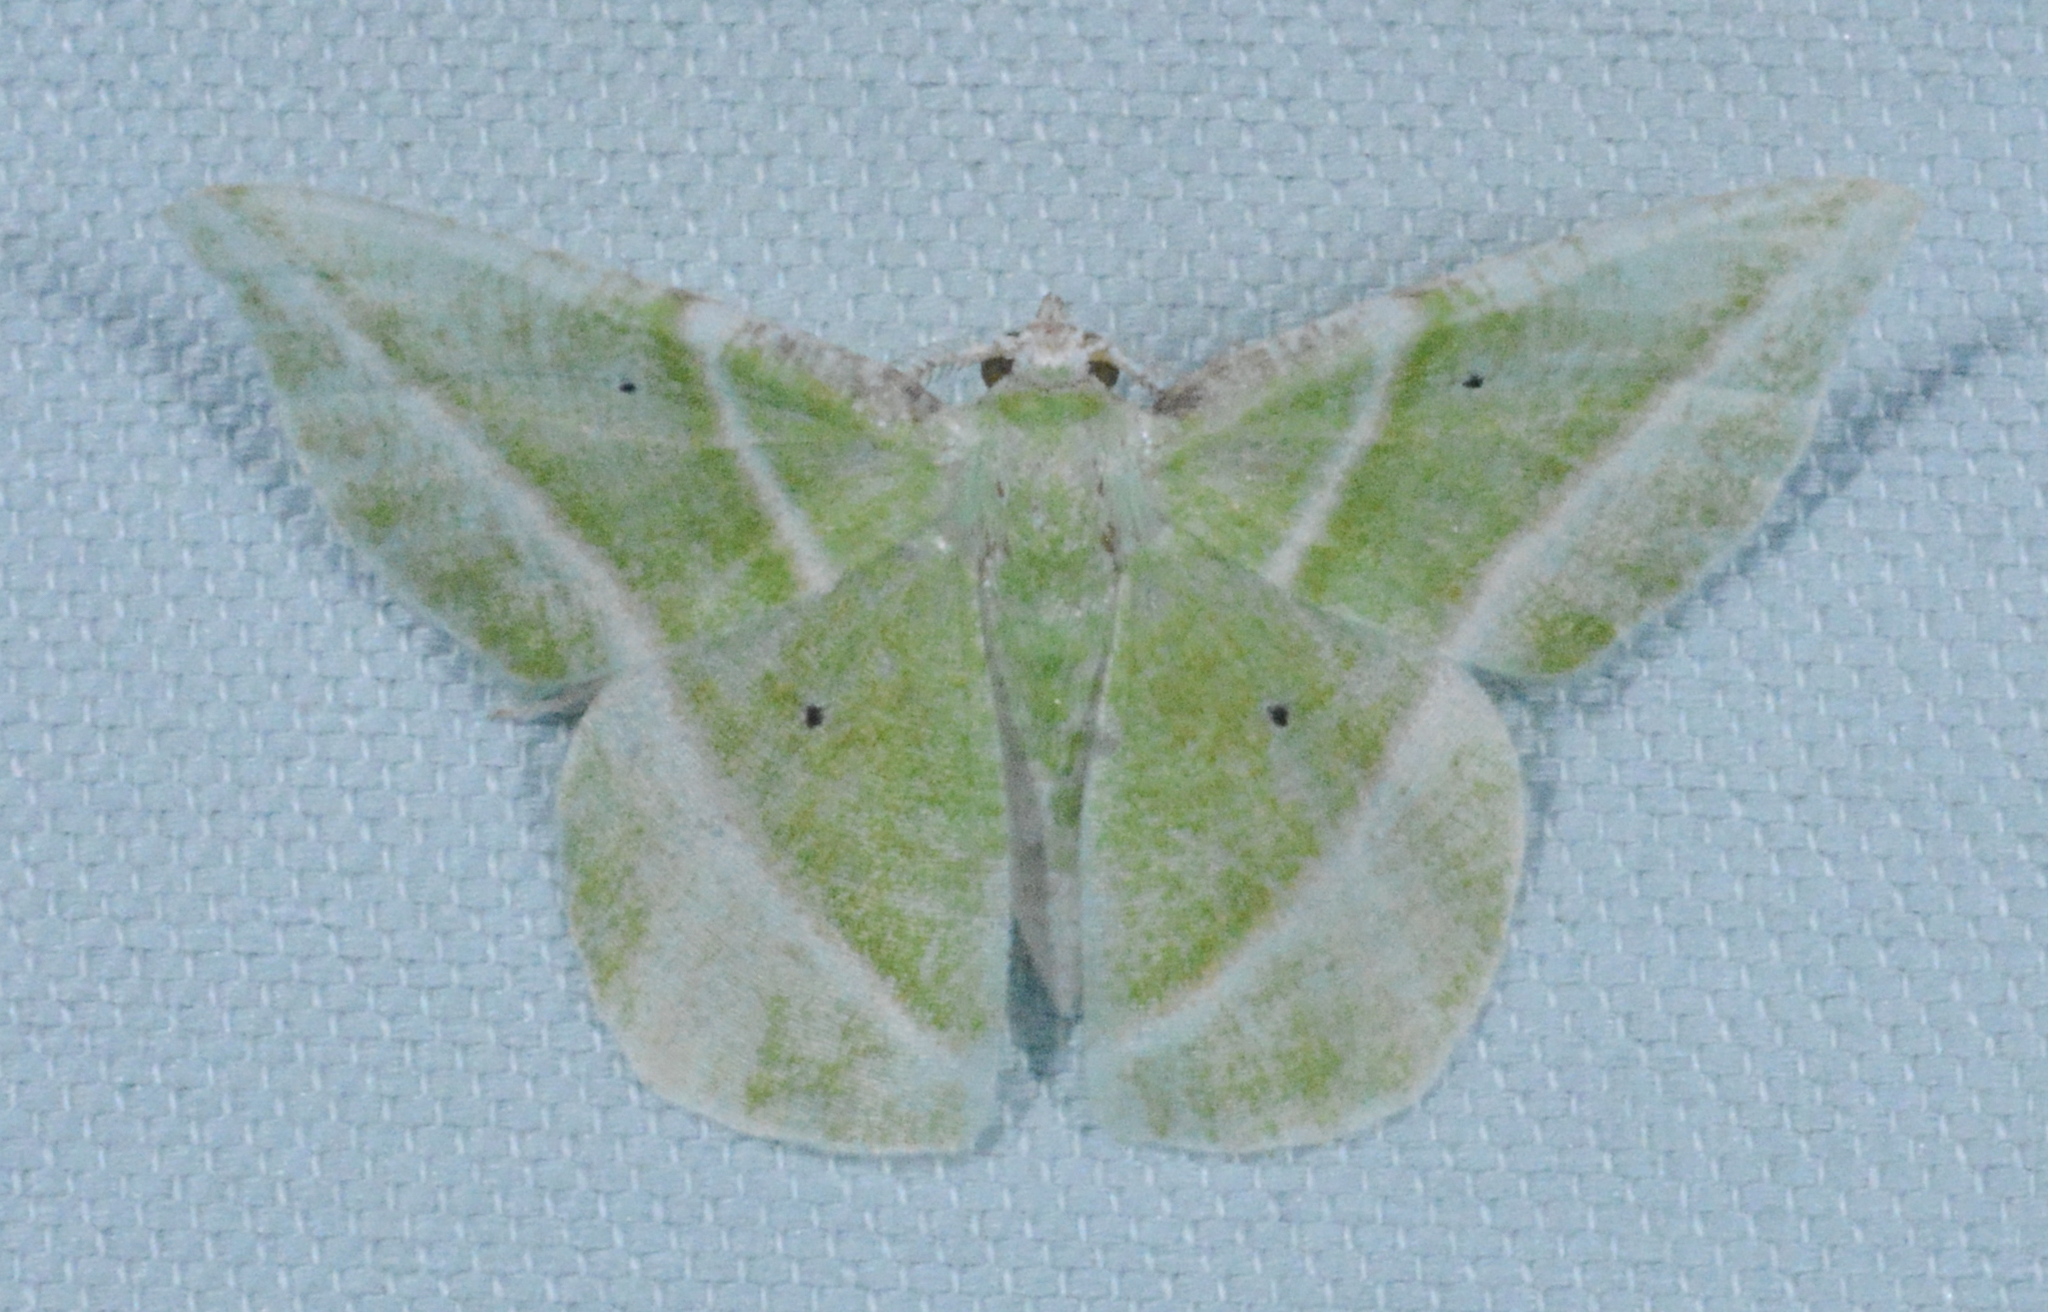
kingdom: Animalia
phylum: Arthropoda
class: Insecta
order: Lepidoptera
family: Geometridae
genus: Dichorda
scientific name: Dichorda iridaria
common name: Showy emerald
